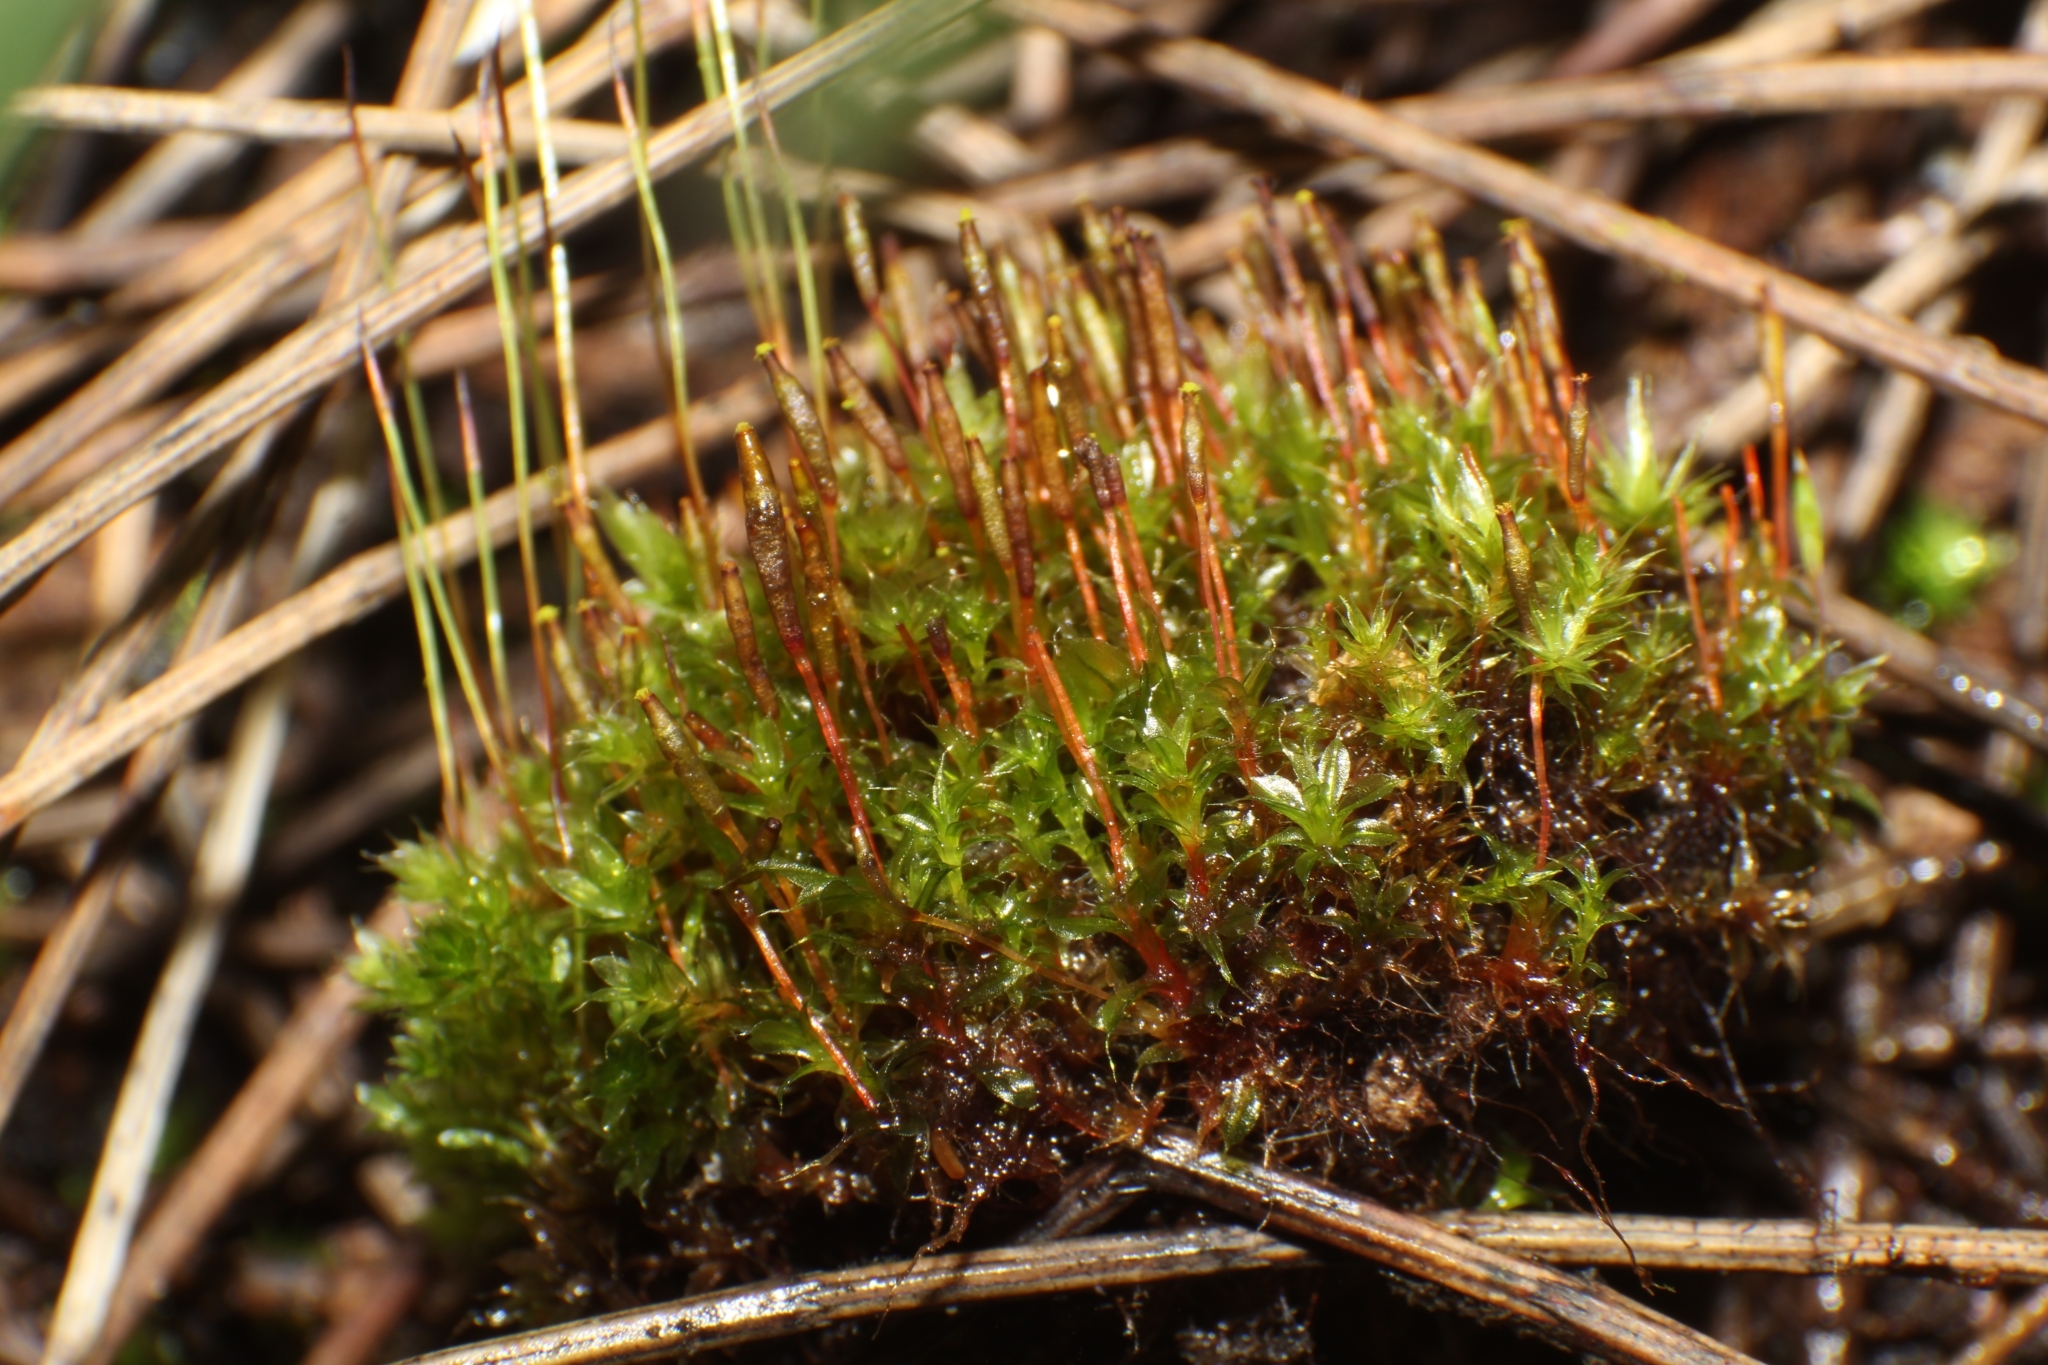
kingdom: Plantae
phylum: Bryophyta
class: Bryopsida
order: Splachnales
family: Splachnaceae
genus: Tayloria
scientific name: Tayloria octoblephara
